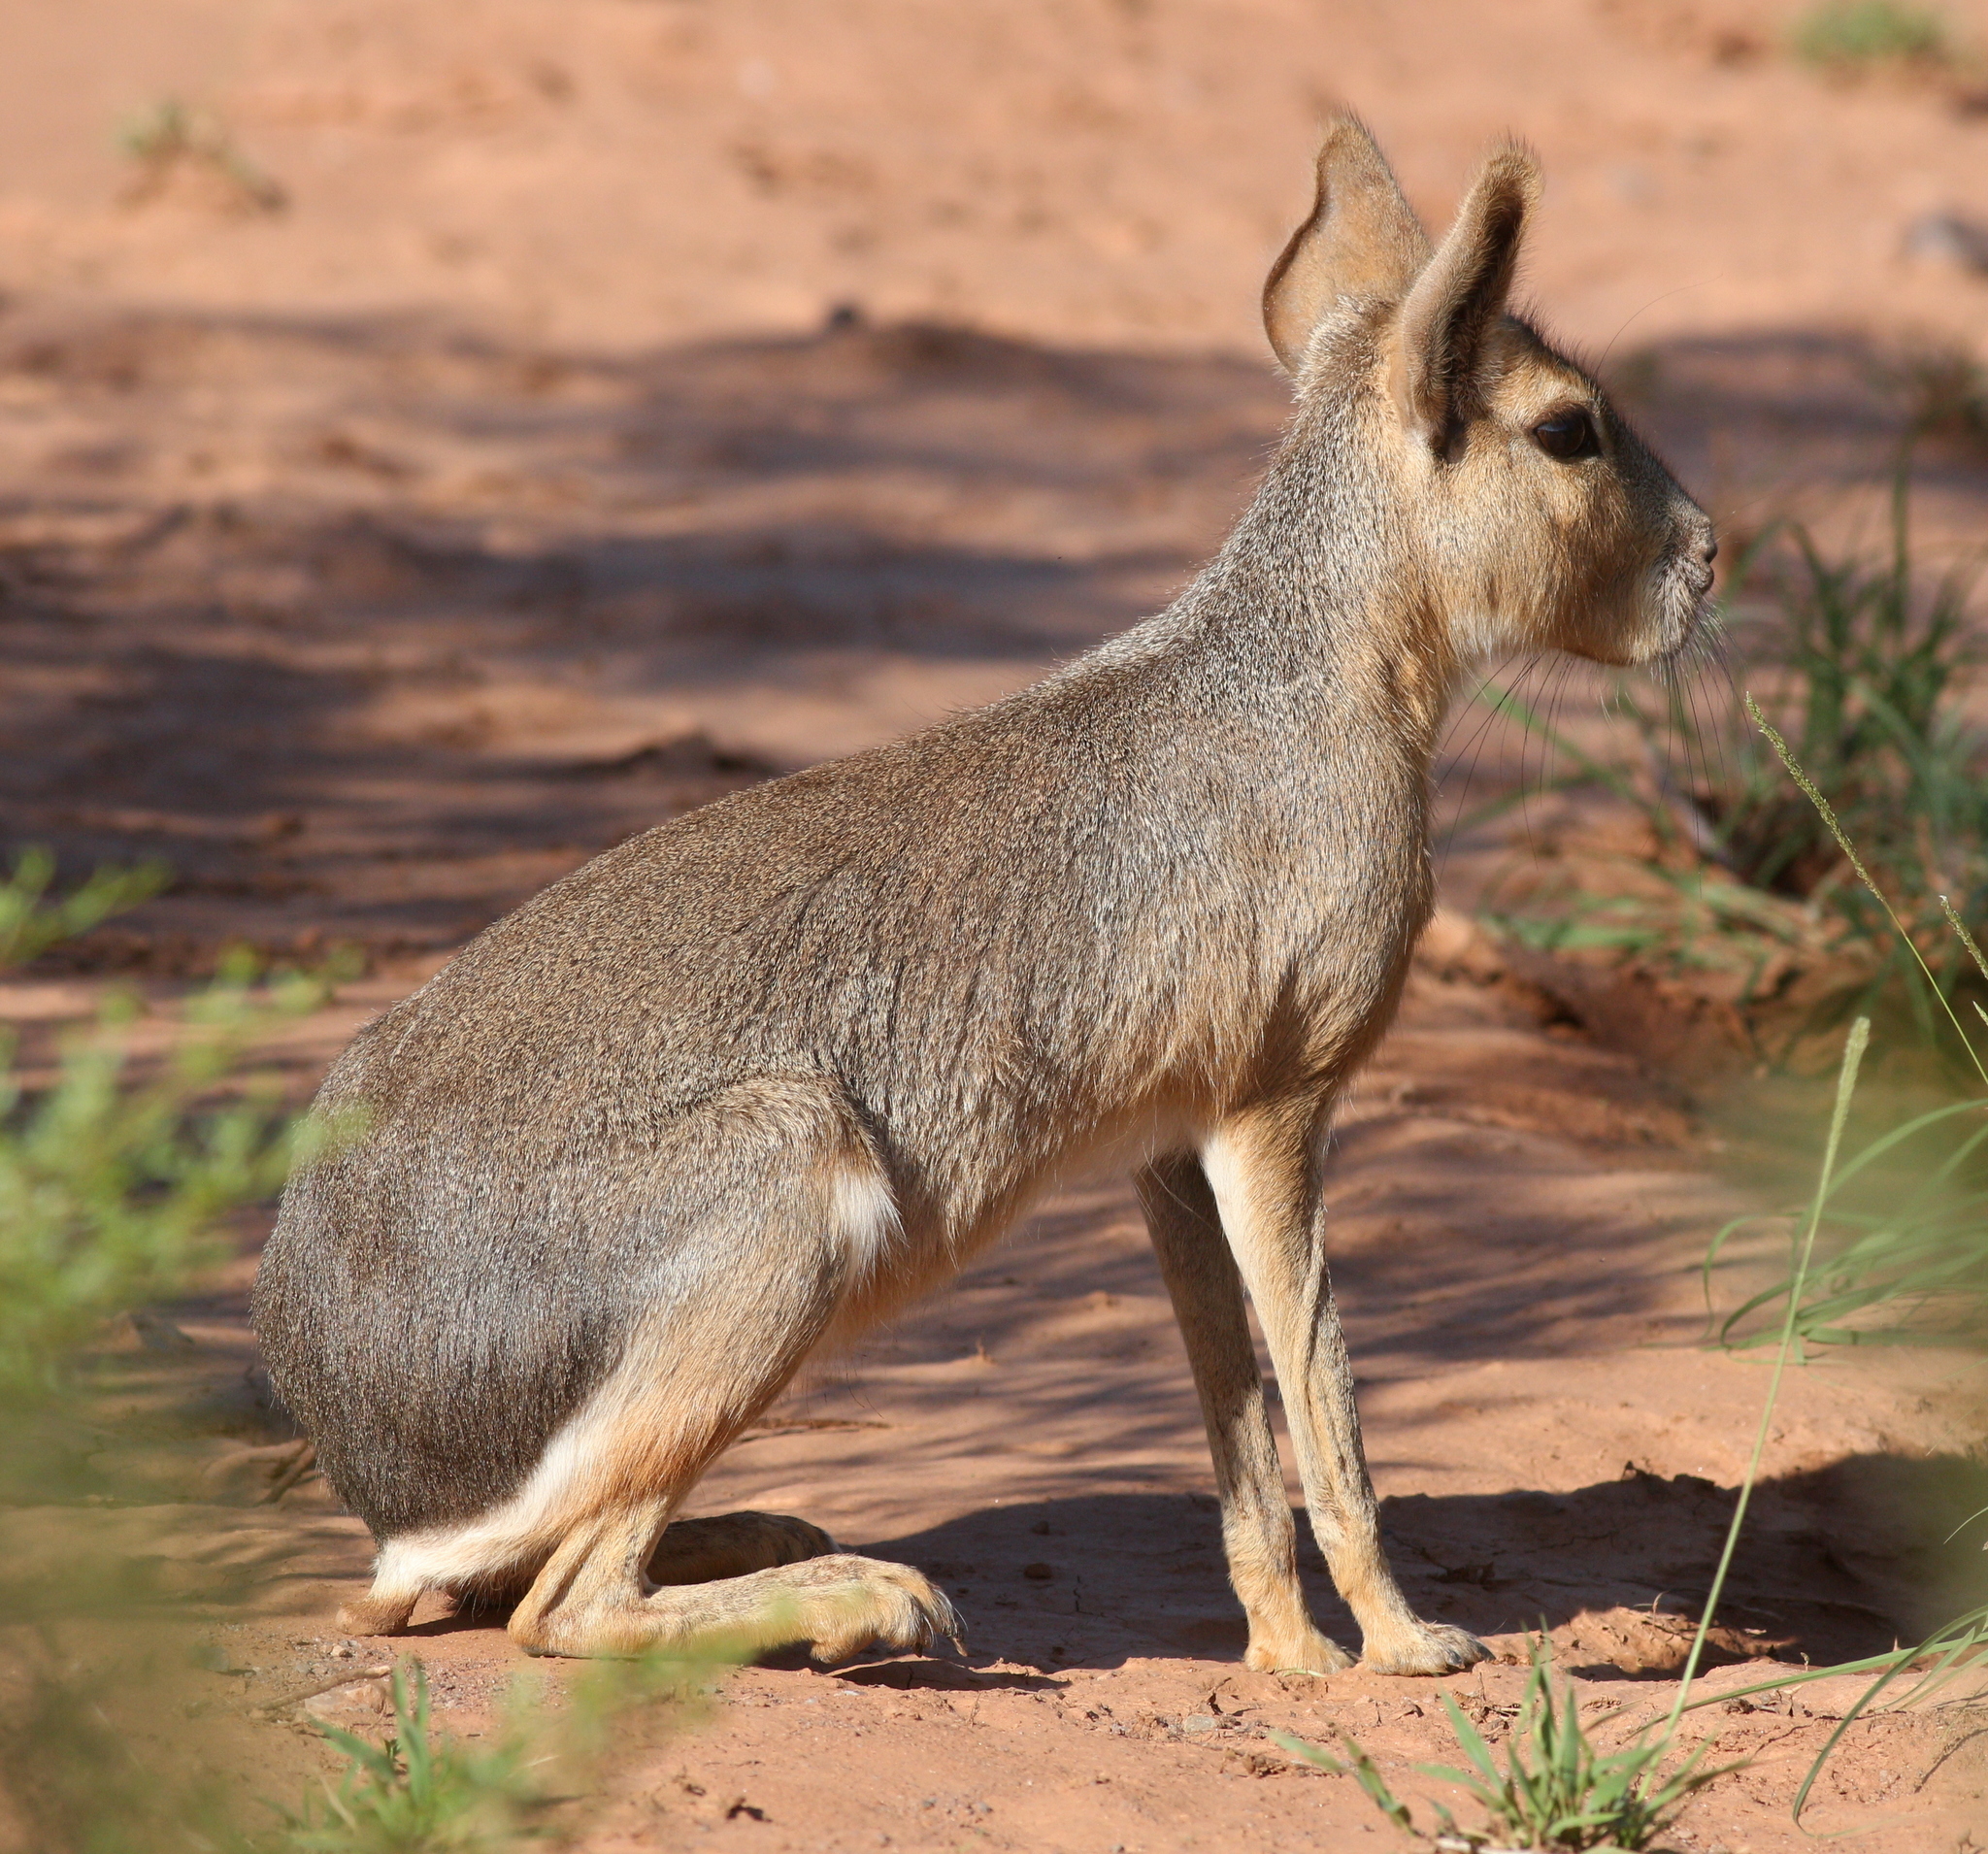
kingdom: Animalia
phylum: Chordata
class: Mammalia
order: Rodentia
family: Caviidae
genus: Dolichotis
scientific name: Dolichotis patagonum
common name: Patagonian mara
